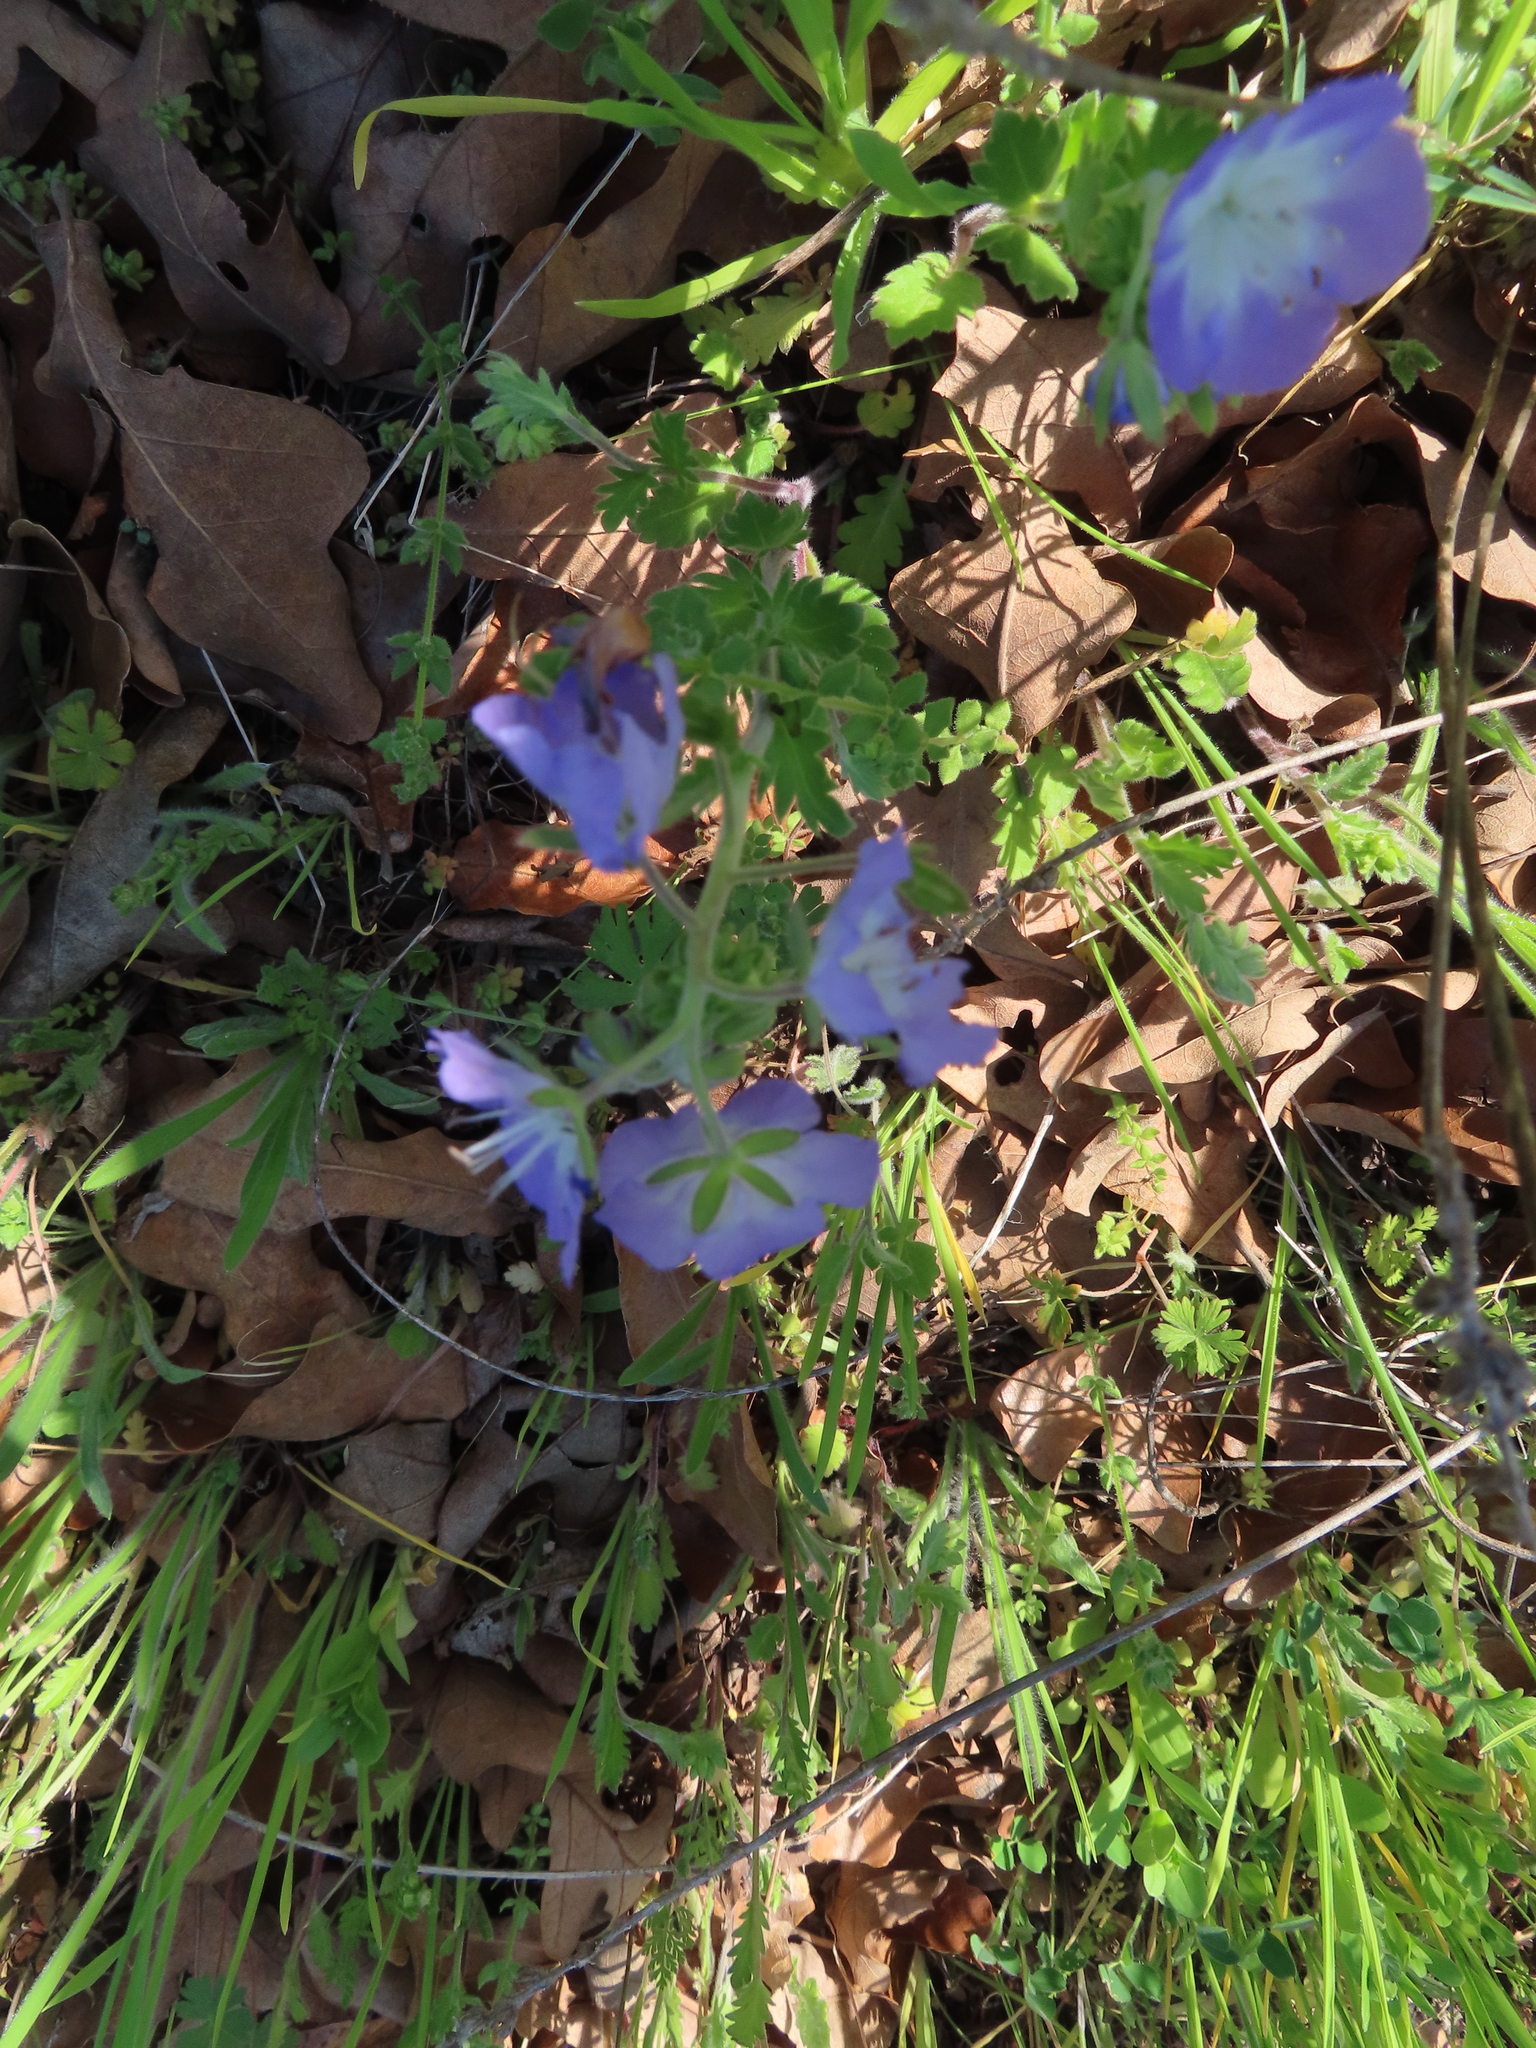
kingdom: Plantae
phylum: Tracheophyta
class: Magnoliopsida
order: Boraginales
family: Hydrophyllaceae
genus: Phacelia
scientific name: Phacelia patuliflora
